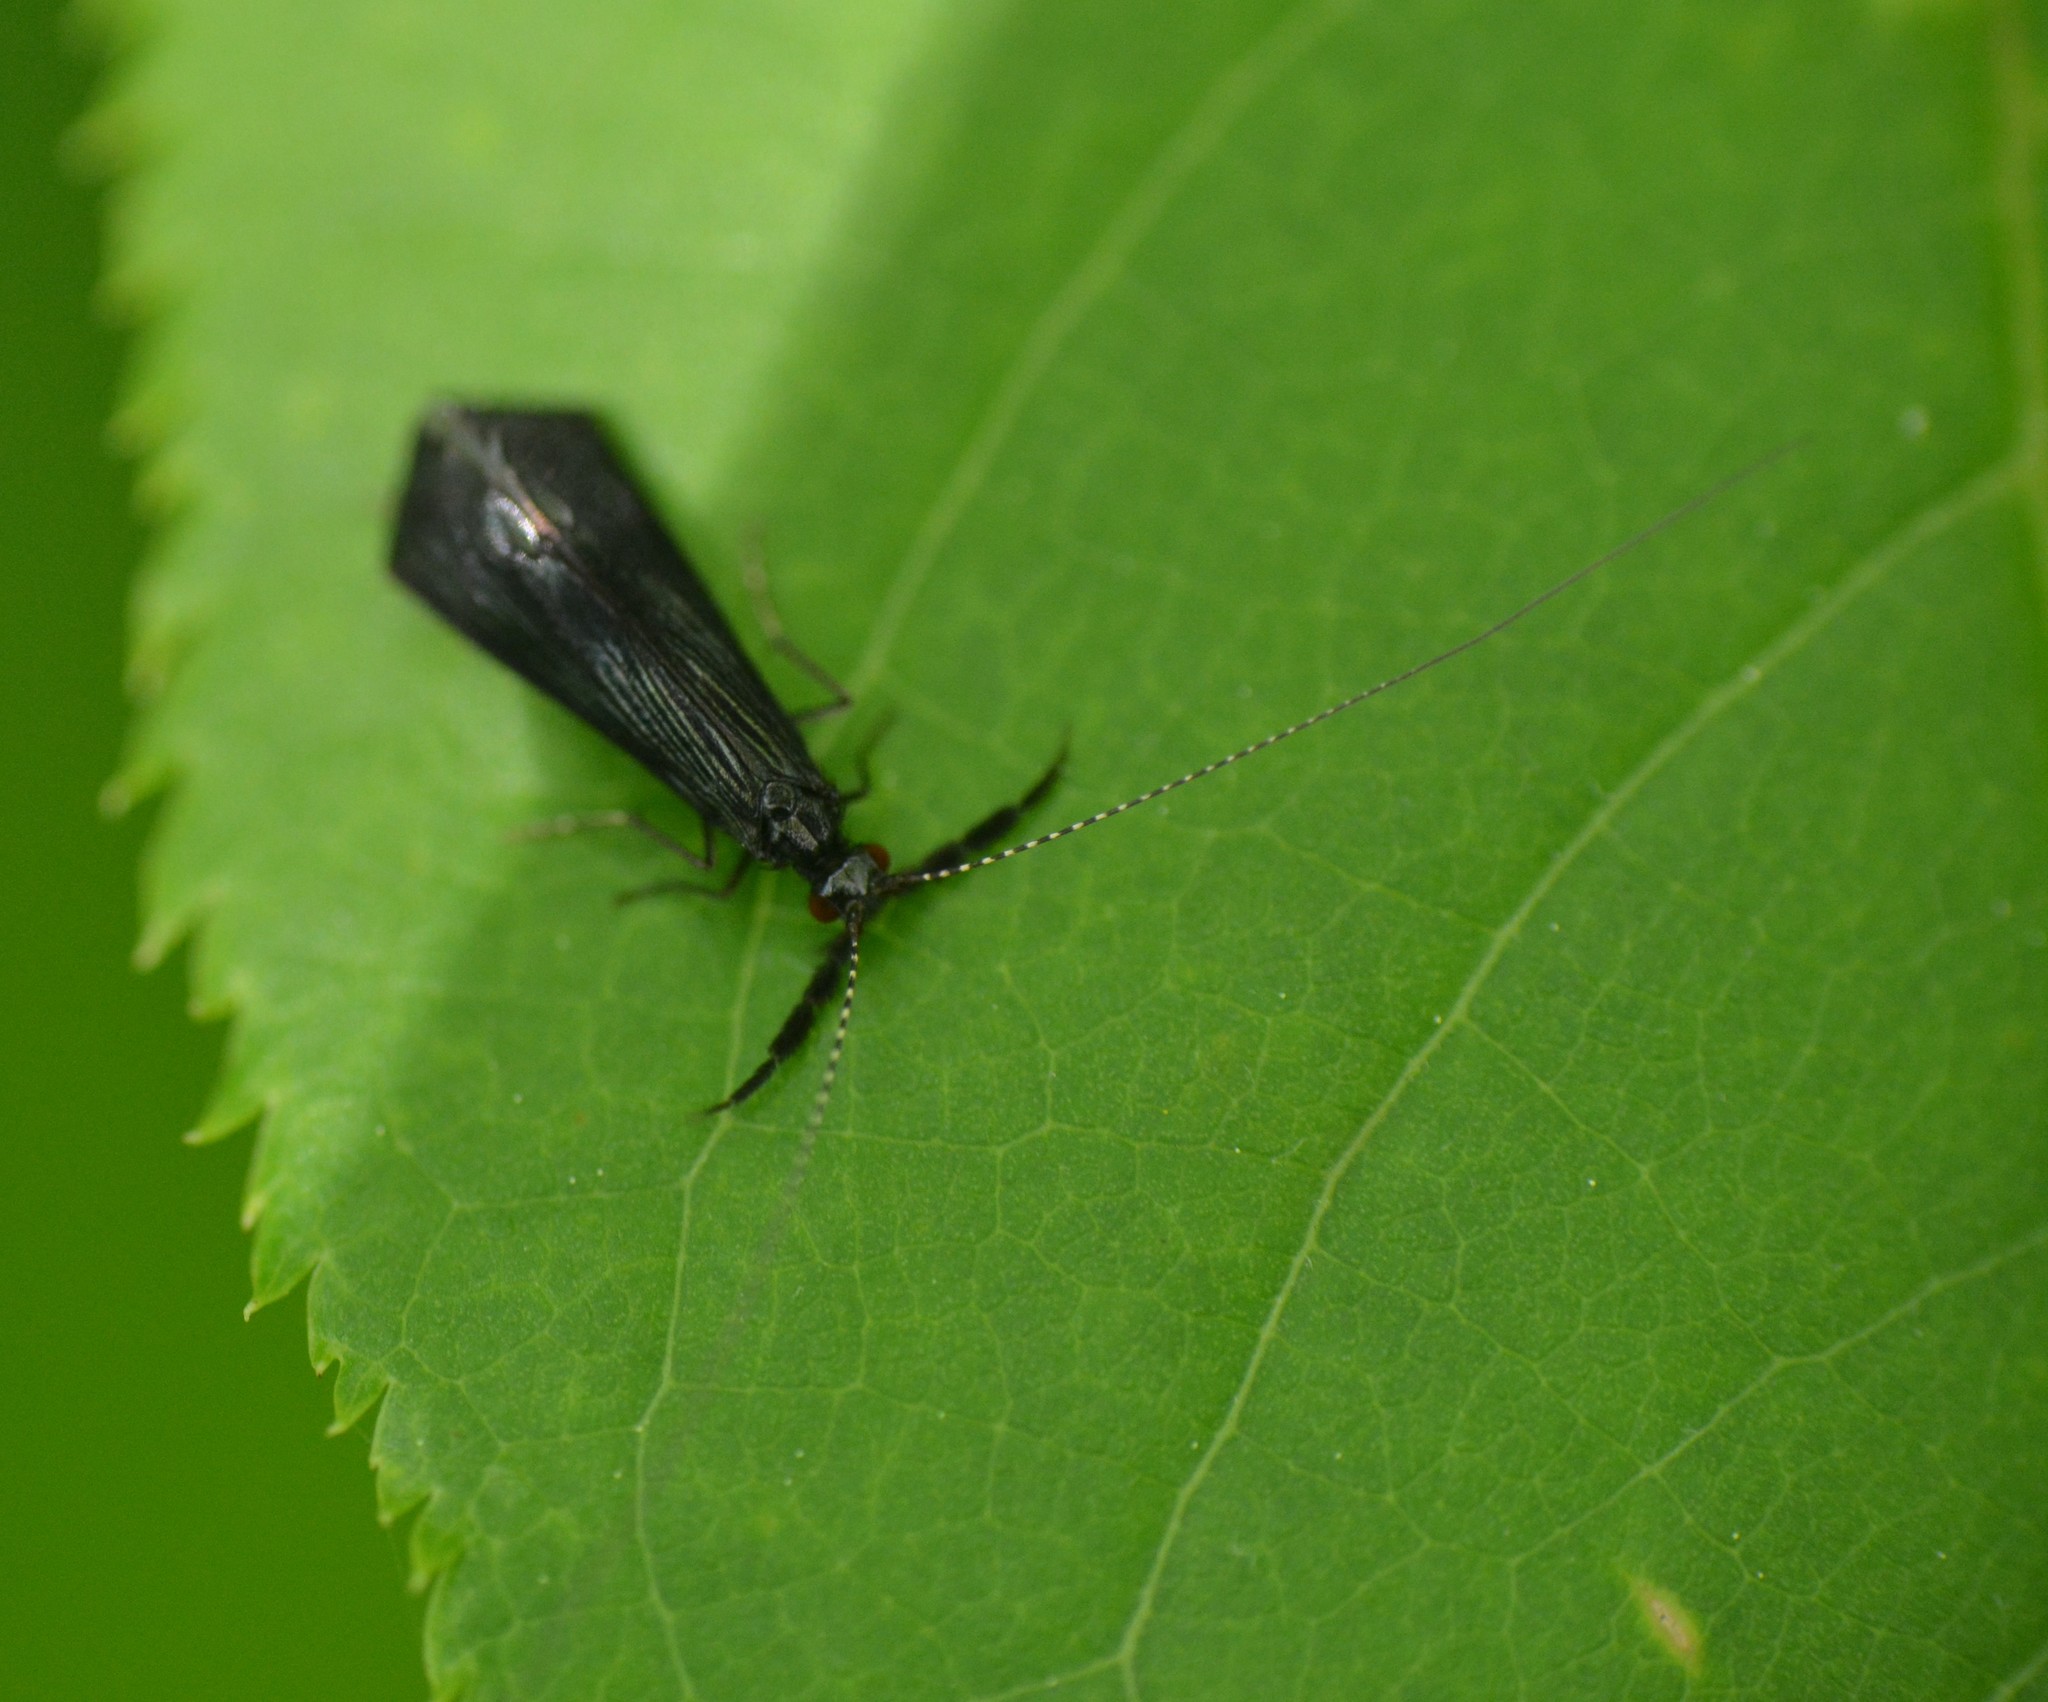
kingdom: Animalia
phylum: Arthropoda
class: Insecta
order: Trichoptera
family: Leptoceridae
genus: Mystacides
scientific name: Mystacides sepulchralis
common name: Black dancer caddisfly
